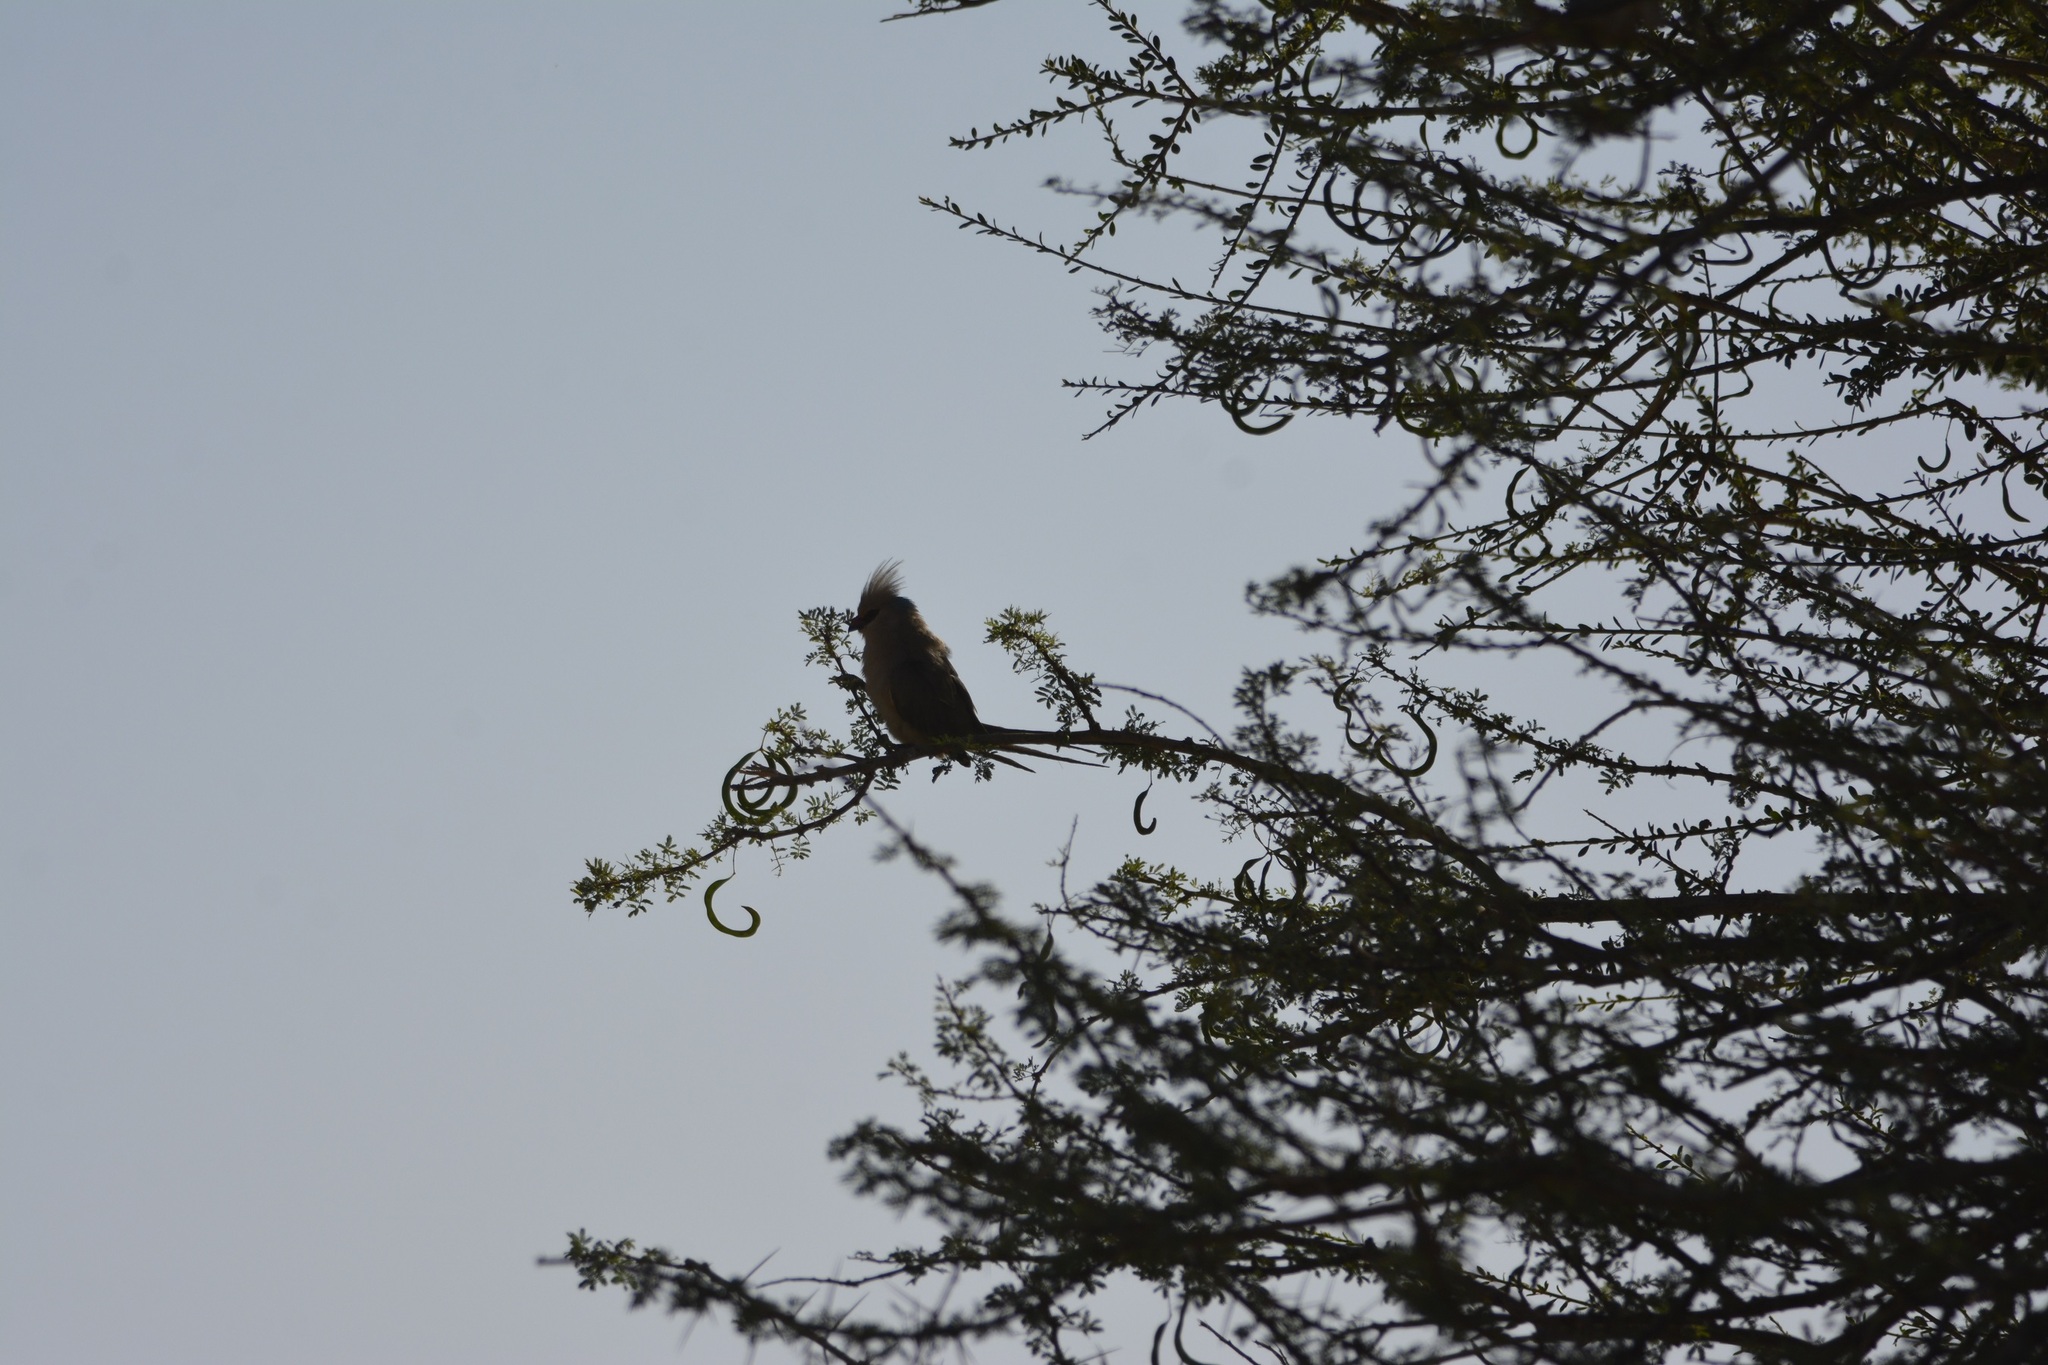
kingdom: Animalia
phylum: Chordata
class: Aves
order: Coliiformes
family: Coliidae
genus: Urocolius
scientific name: Urocolius macrourus
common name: Blue-naped mousebird
